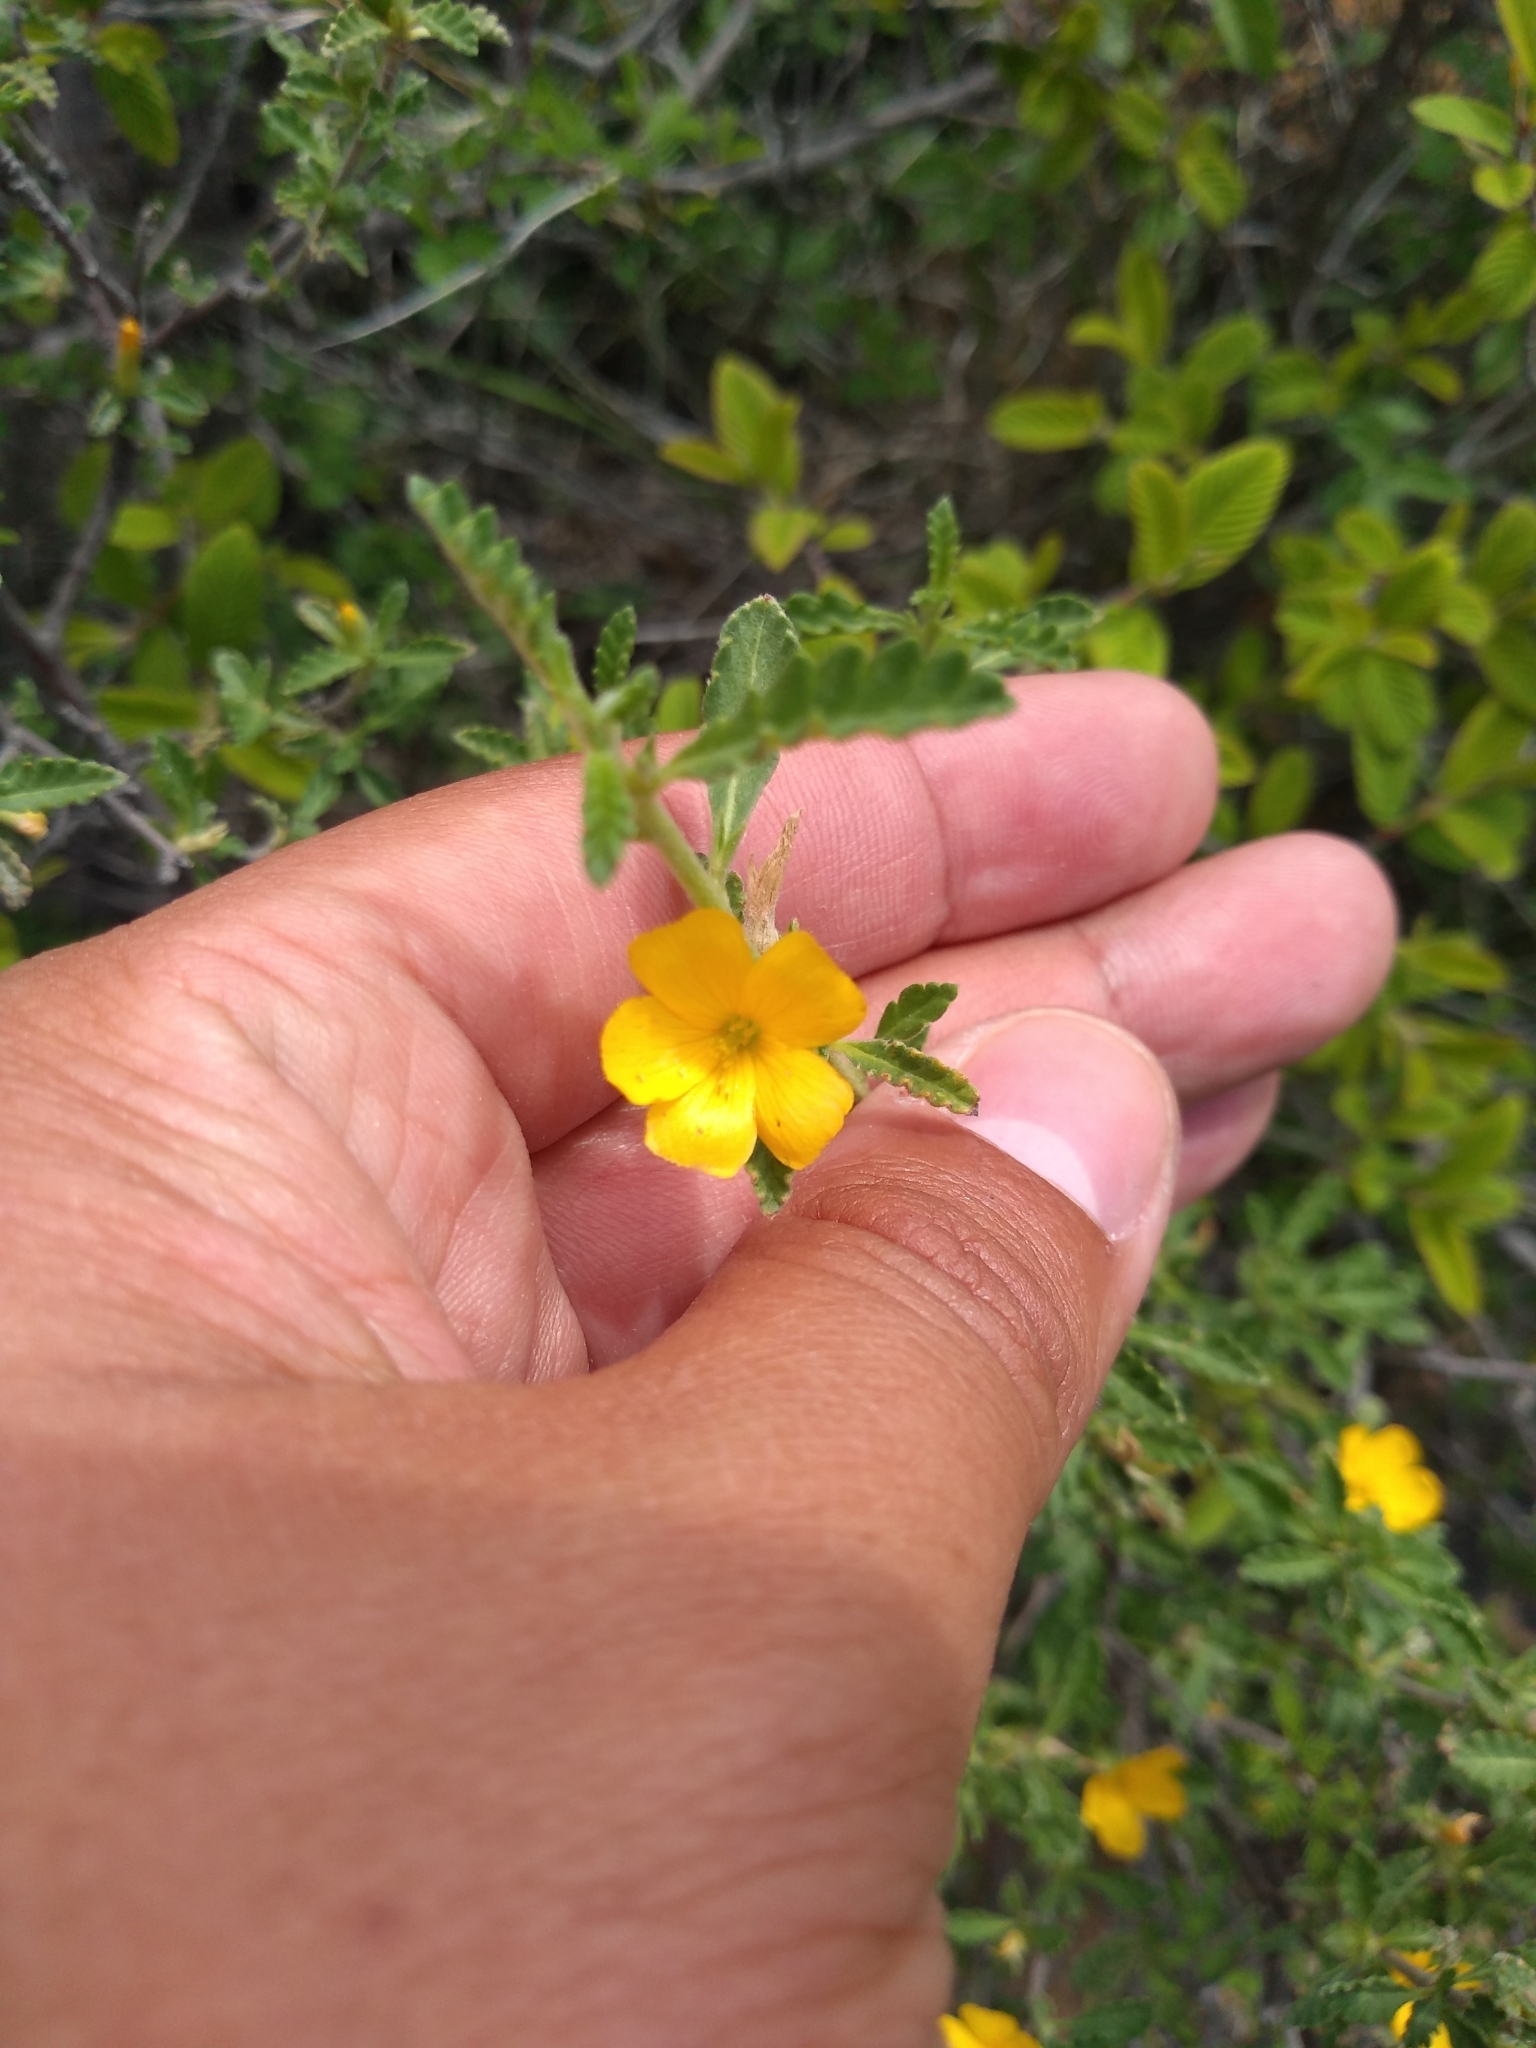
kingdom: Plantae
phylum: Tracheophyta
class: Magnoliopsida
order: Malpighiales
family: Turneraceae
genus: Turnera
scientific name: Turnera diffusa
